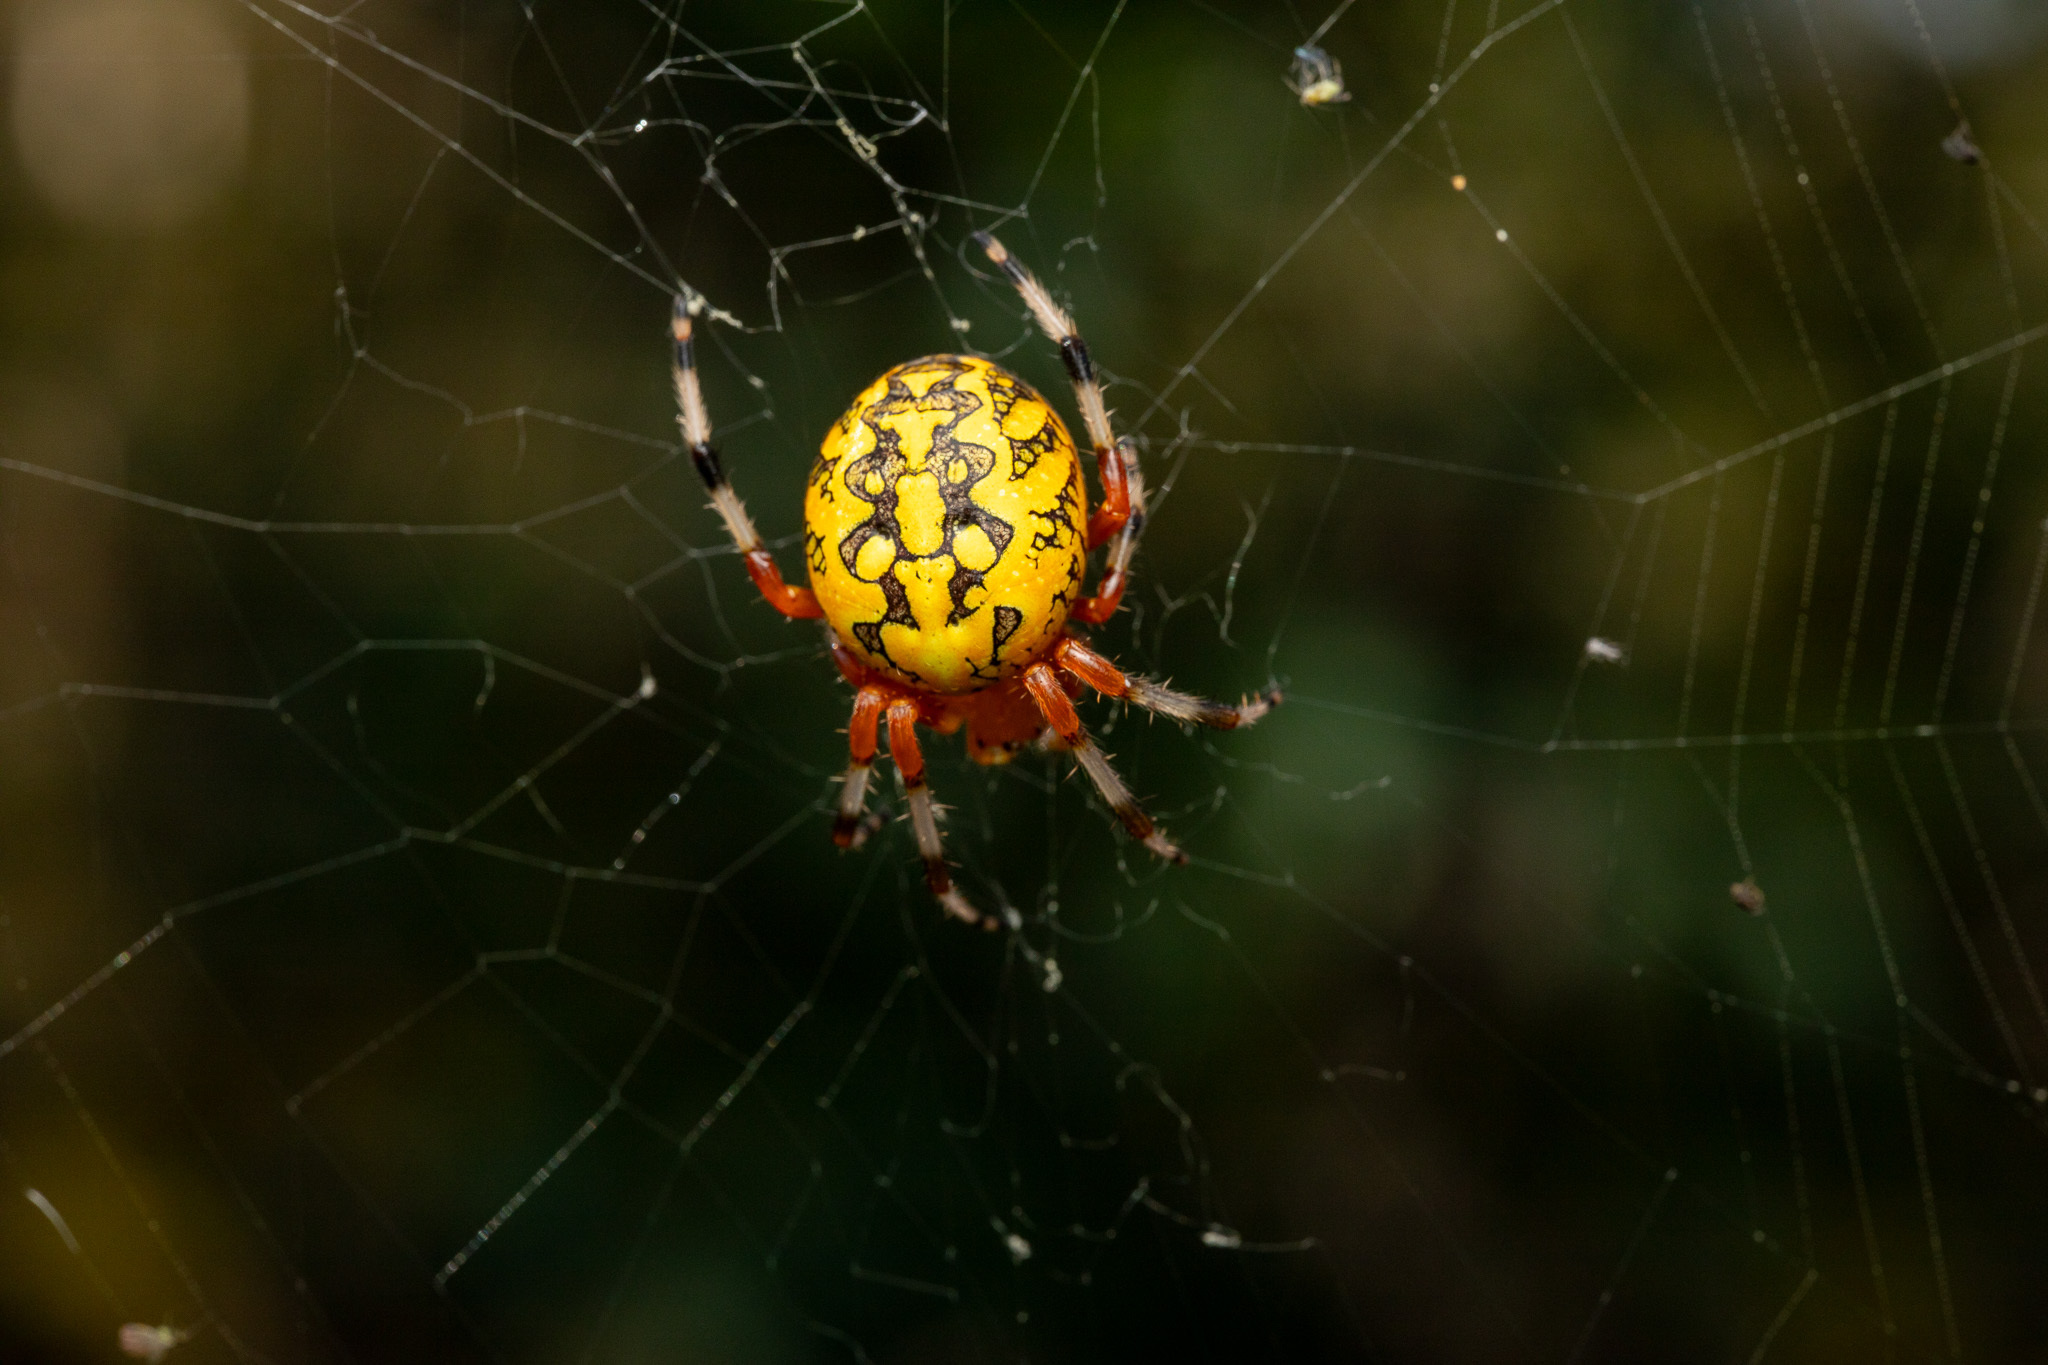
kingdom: Animalia
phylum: Arthropoda
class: Arachnida
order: Araneae
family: Araneidae
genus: Araneus
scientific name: Araneus marmoreus
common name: Marbled orbweaver
